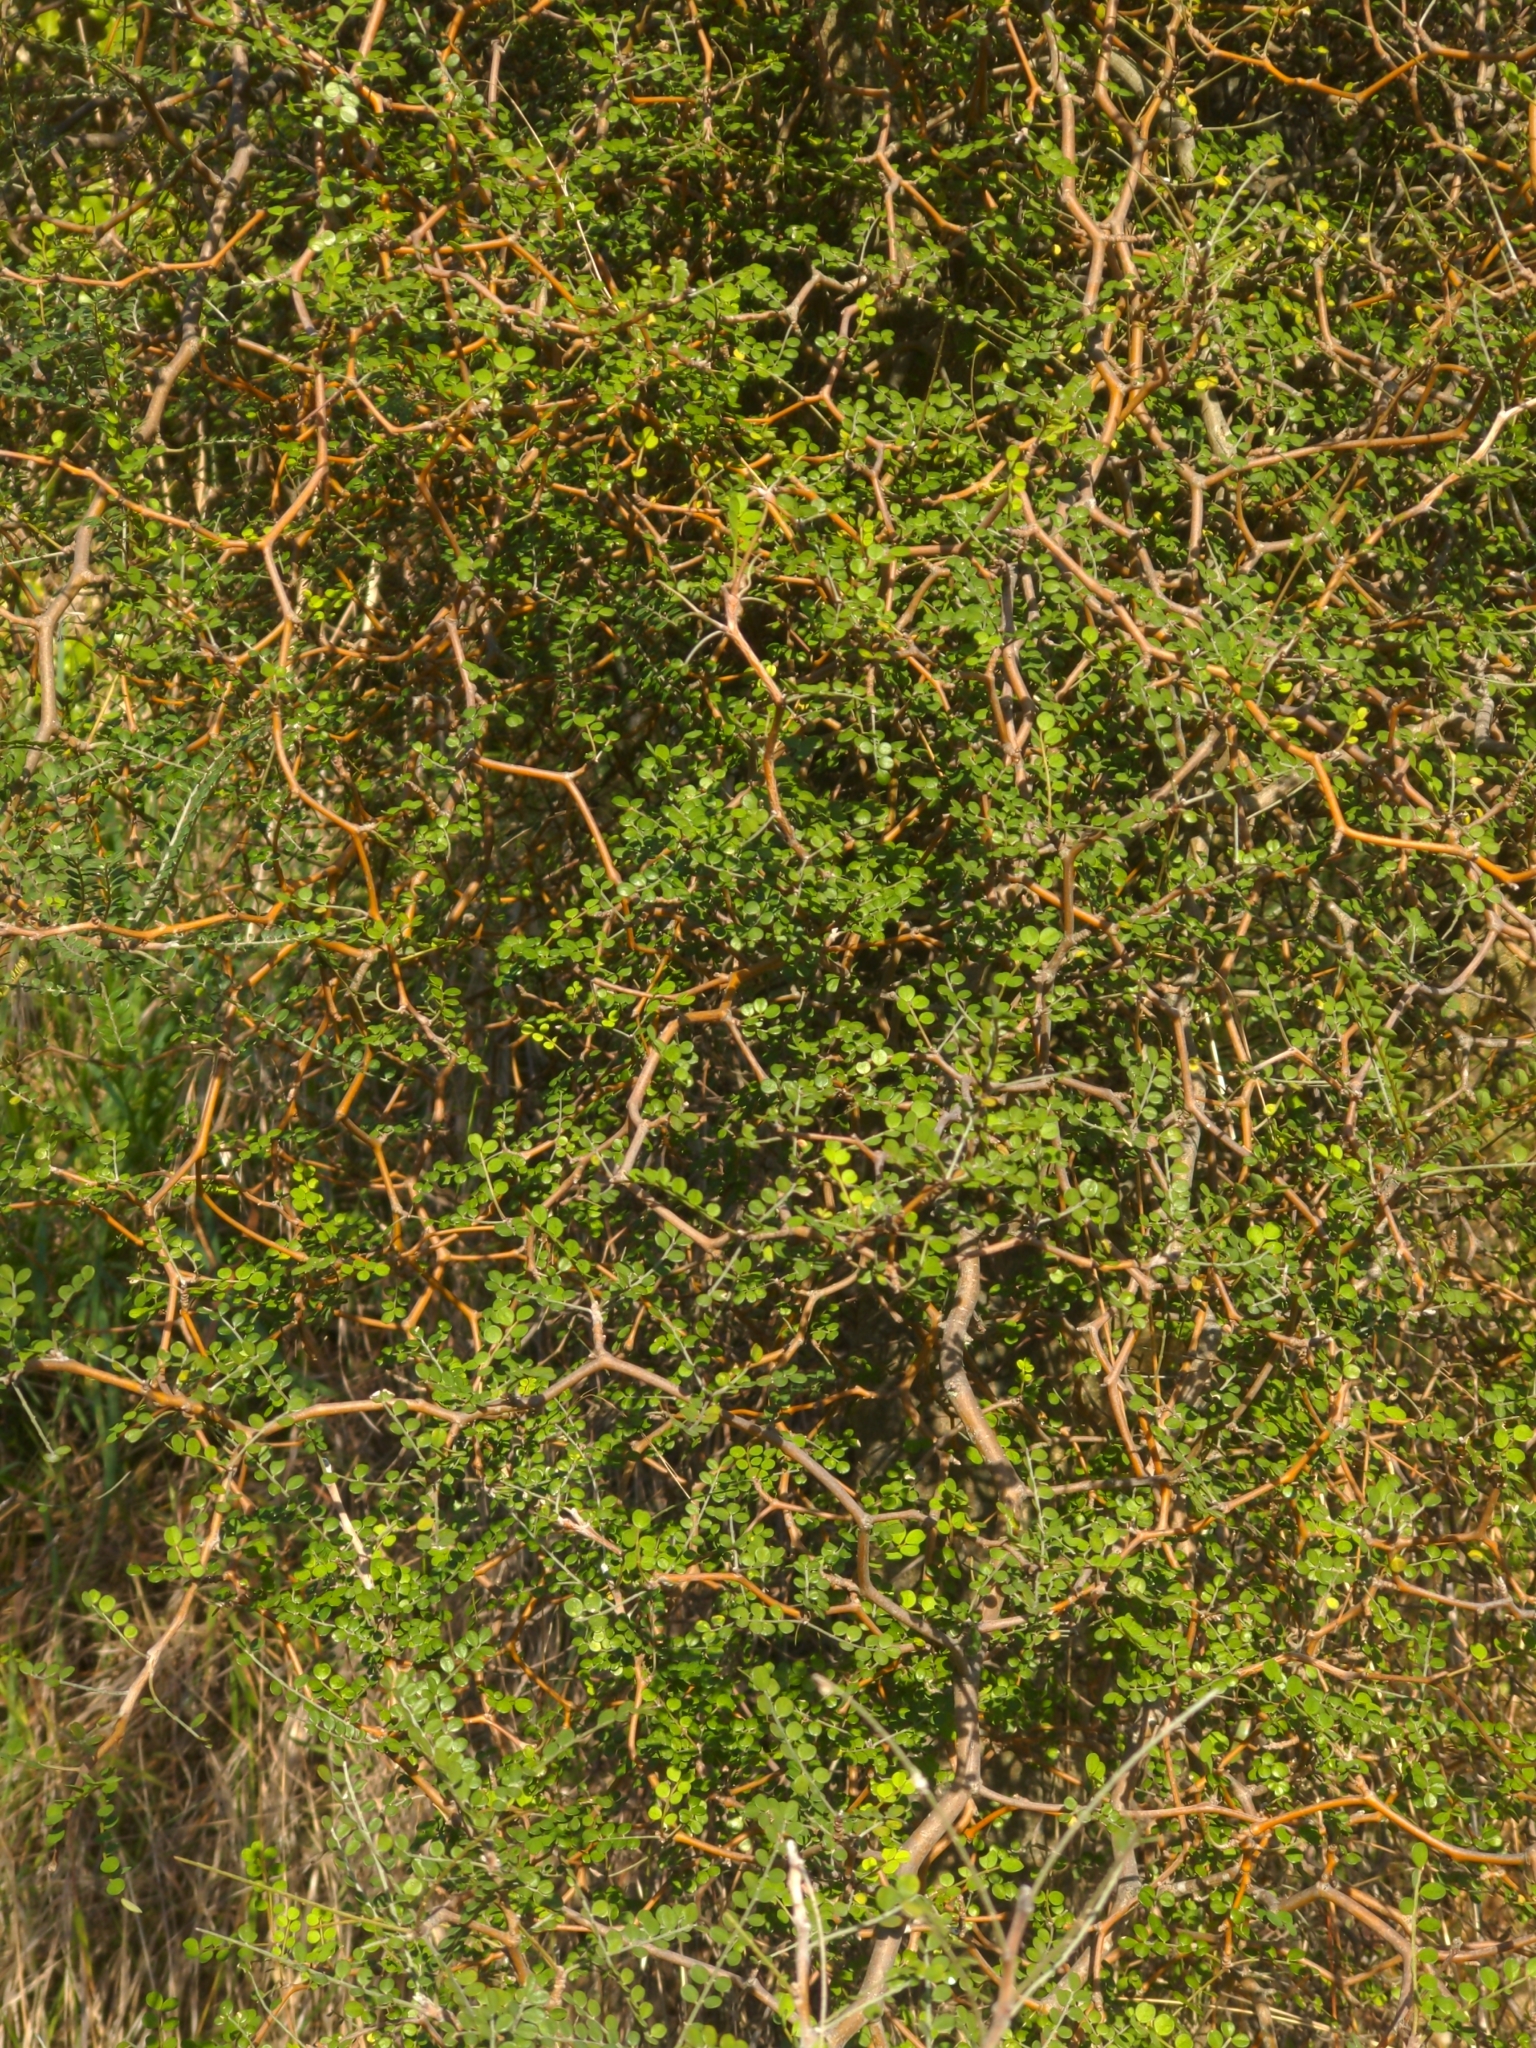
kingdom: Plantae
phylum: Tracheophyta
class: Magnoliopsida
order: Fabales
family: Fabaceae
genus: Sophora
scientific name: Sophora prostrata
